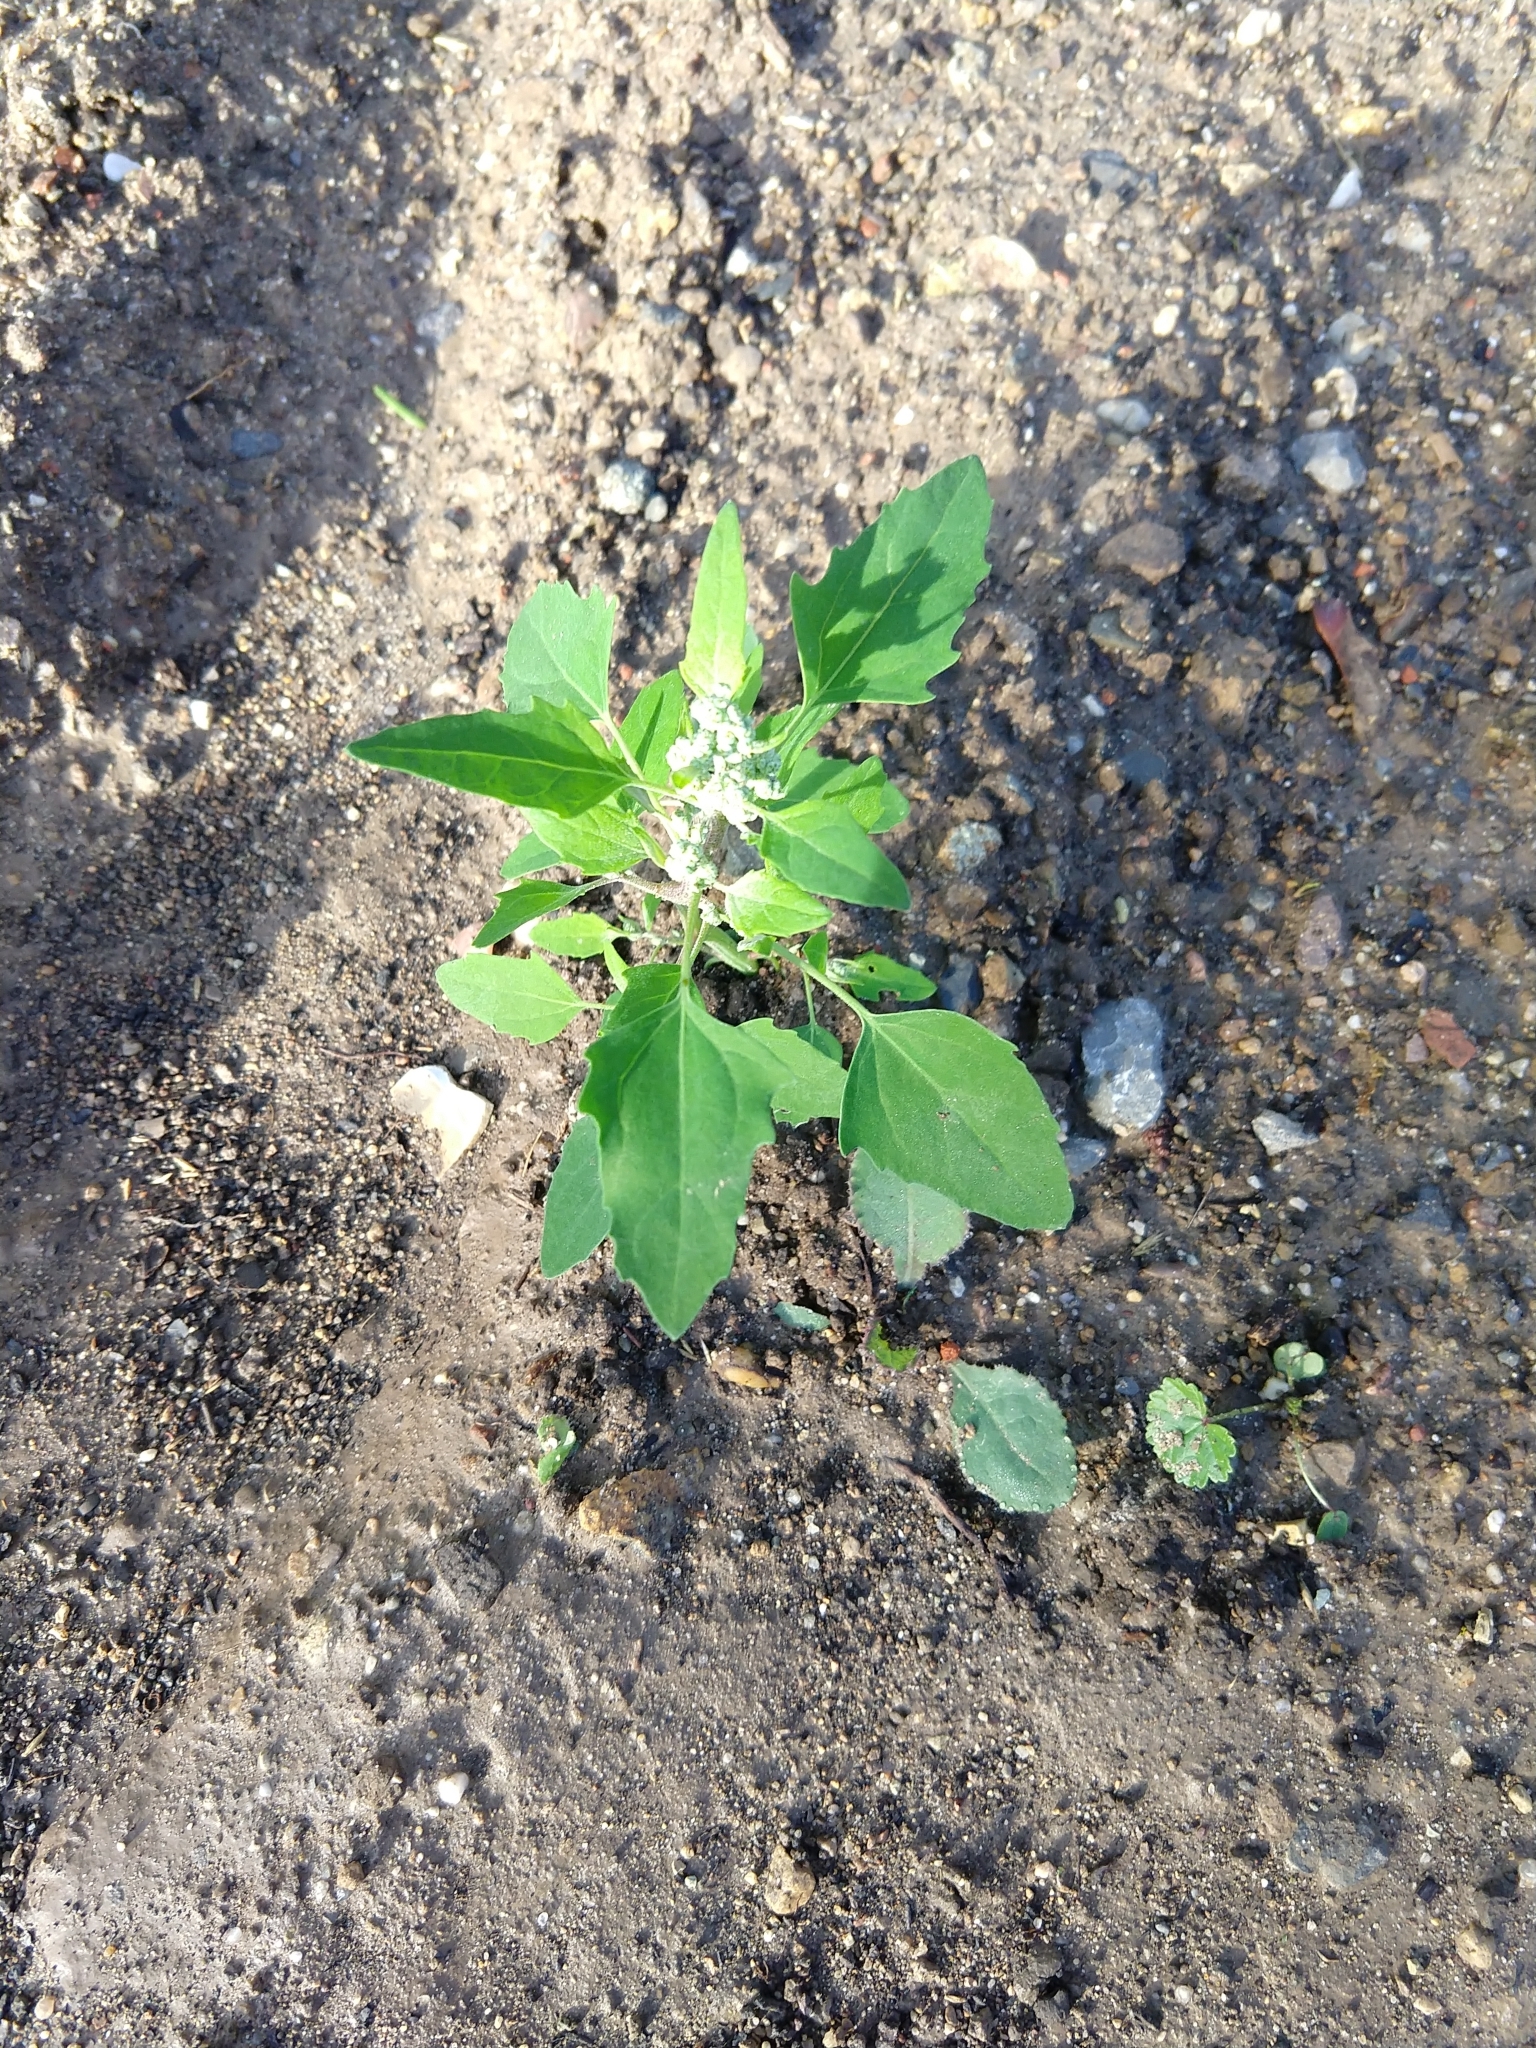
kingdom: Plantae
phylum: Tracheophyta
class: Magnoliopsida
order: Caryophyllales
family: Amaranthaceae
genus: Chenopodium
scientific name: Chenopodium album
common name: Fat-hen
